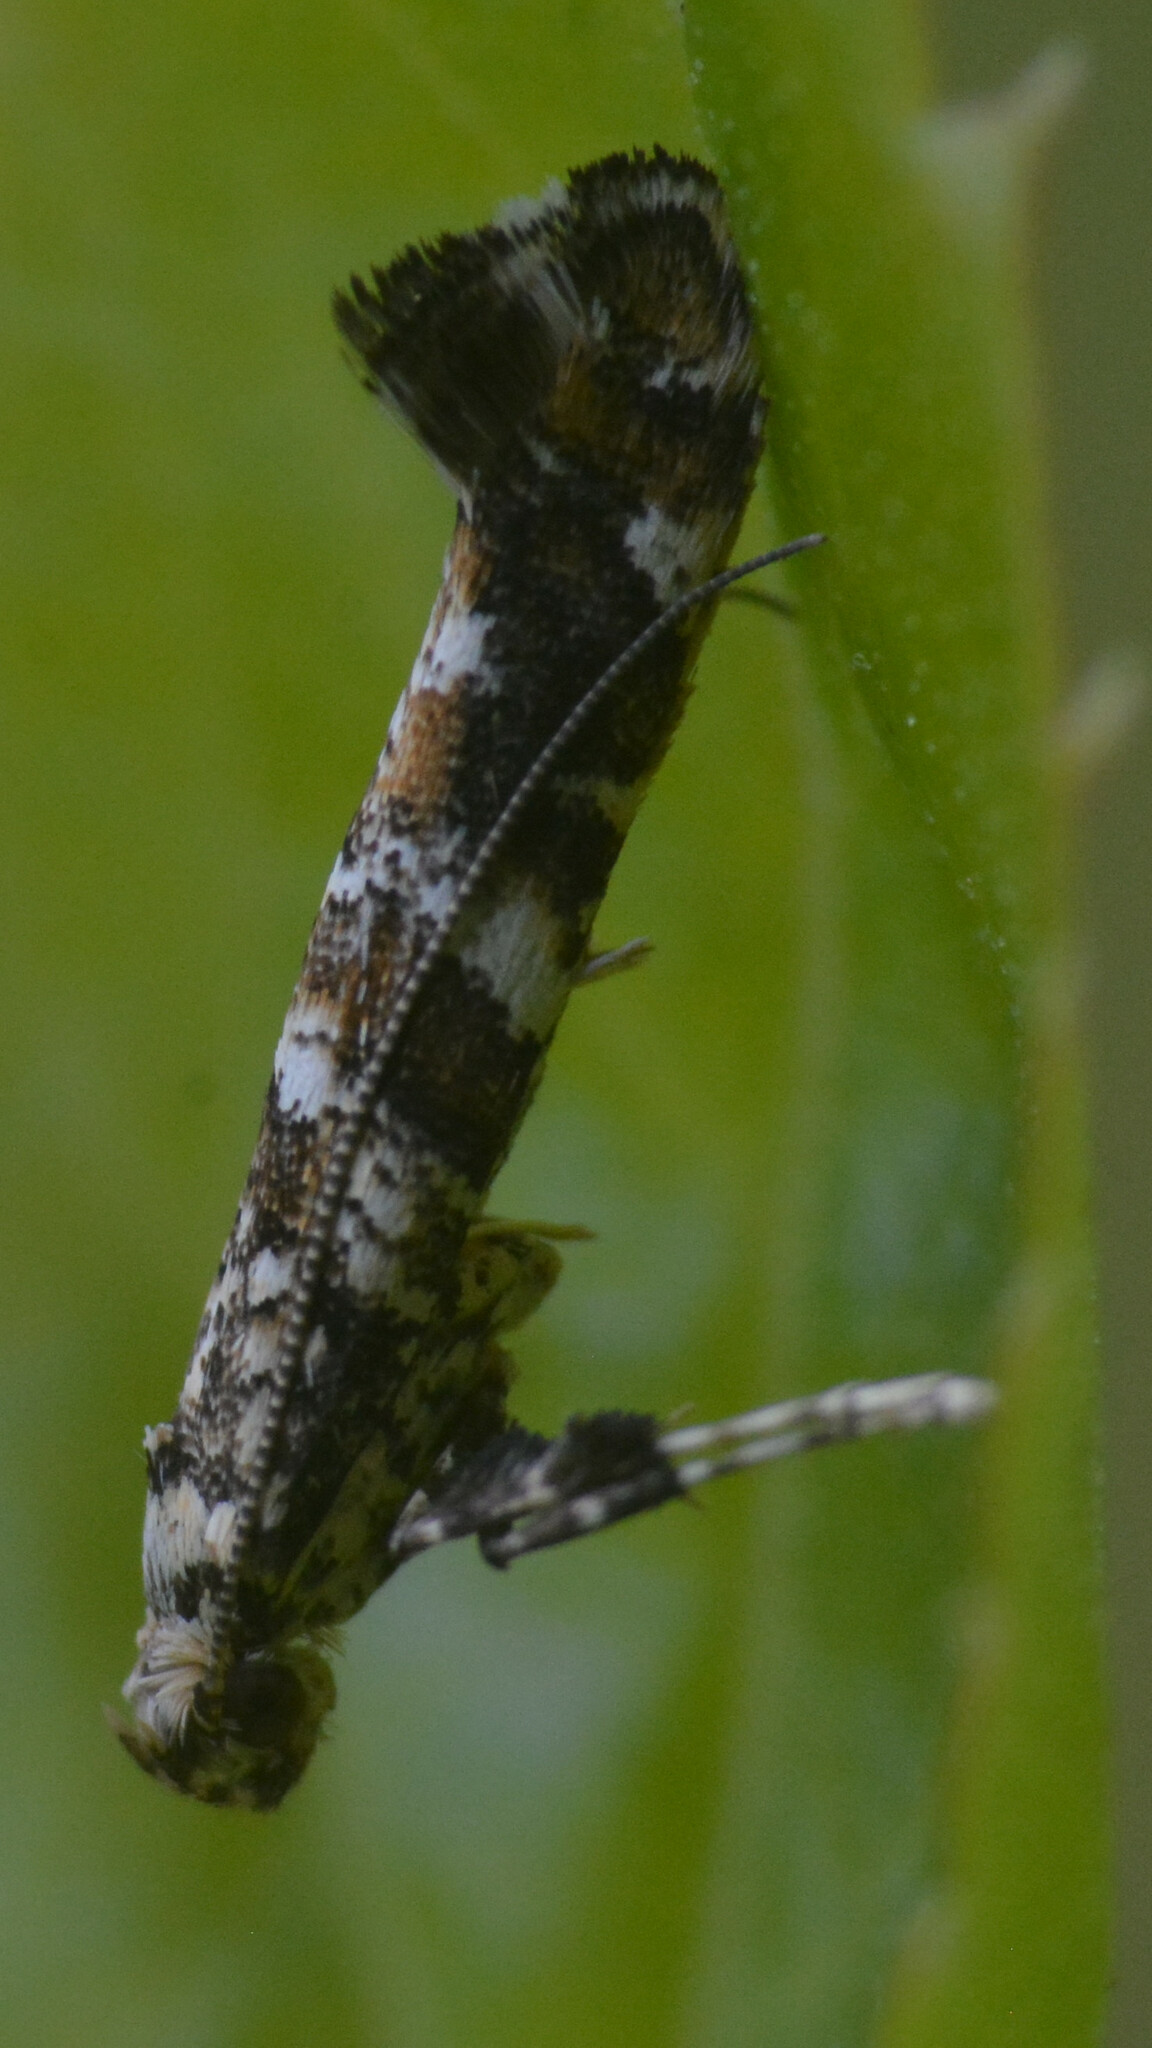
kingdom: Animalia
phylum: Arthropoda
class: Insecta
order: Lepidoptera
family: Gracillariidae
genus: Gracillaria
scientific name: Gracillaria syringella
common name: Common slender
